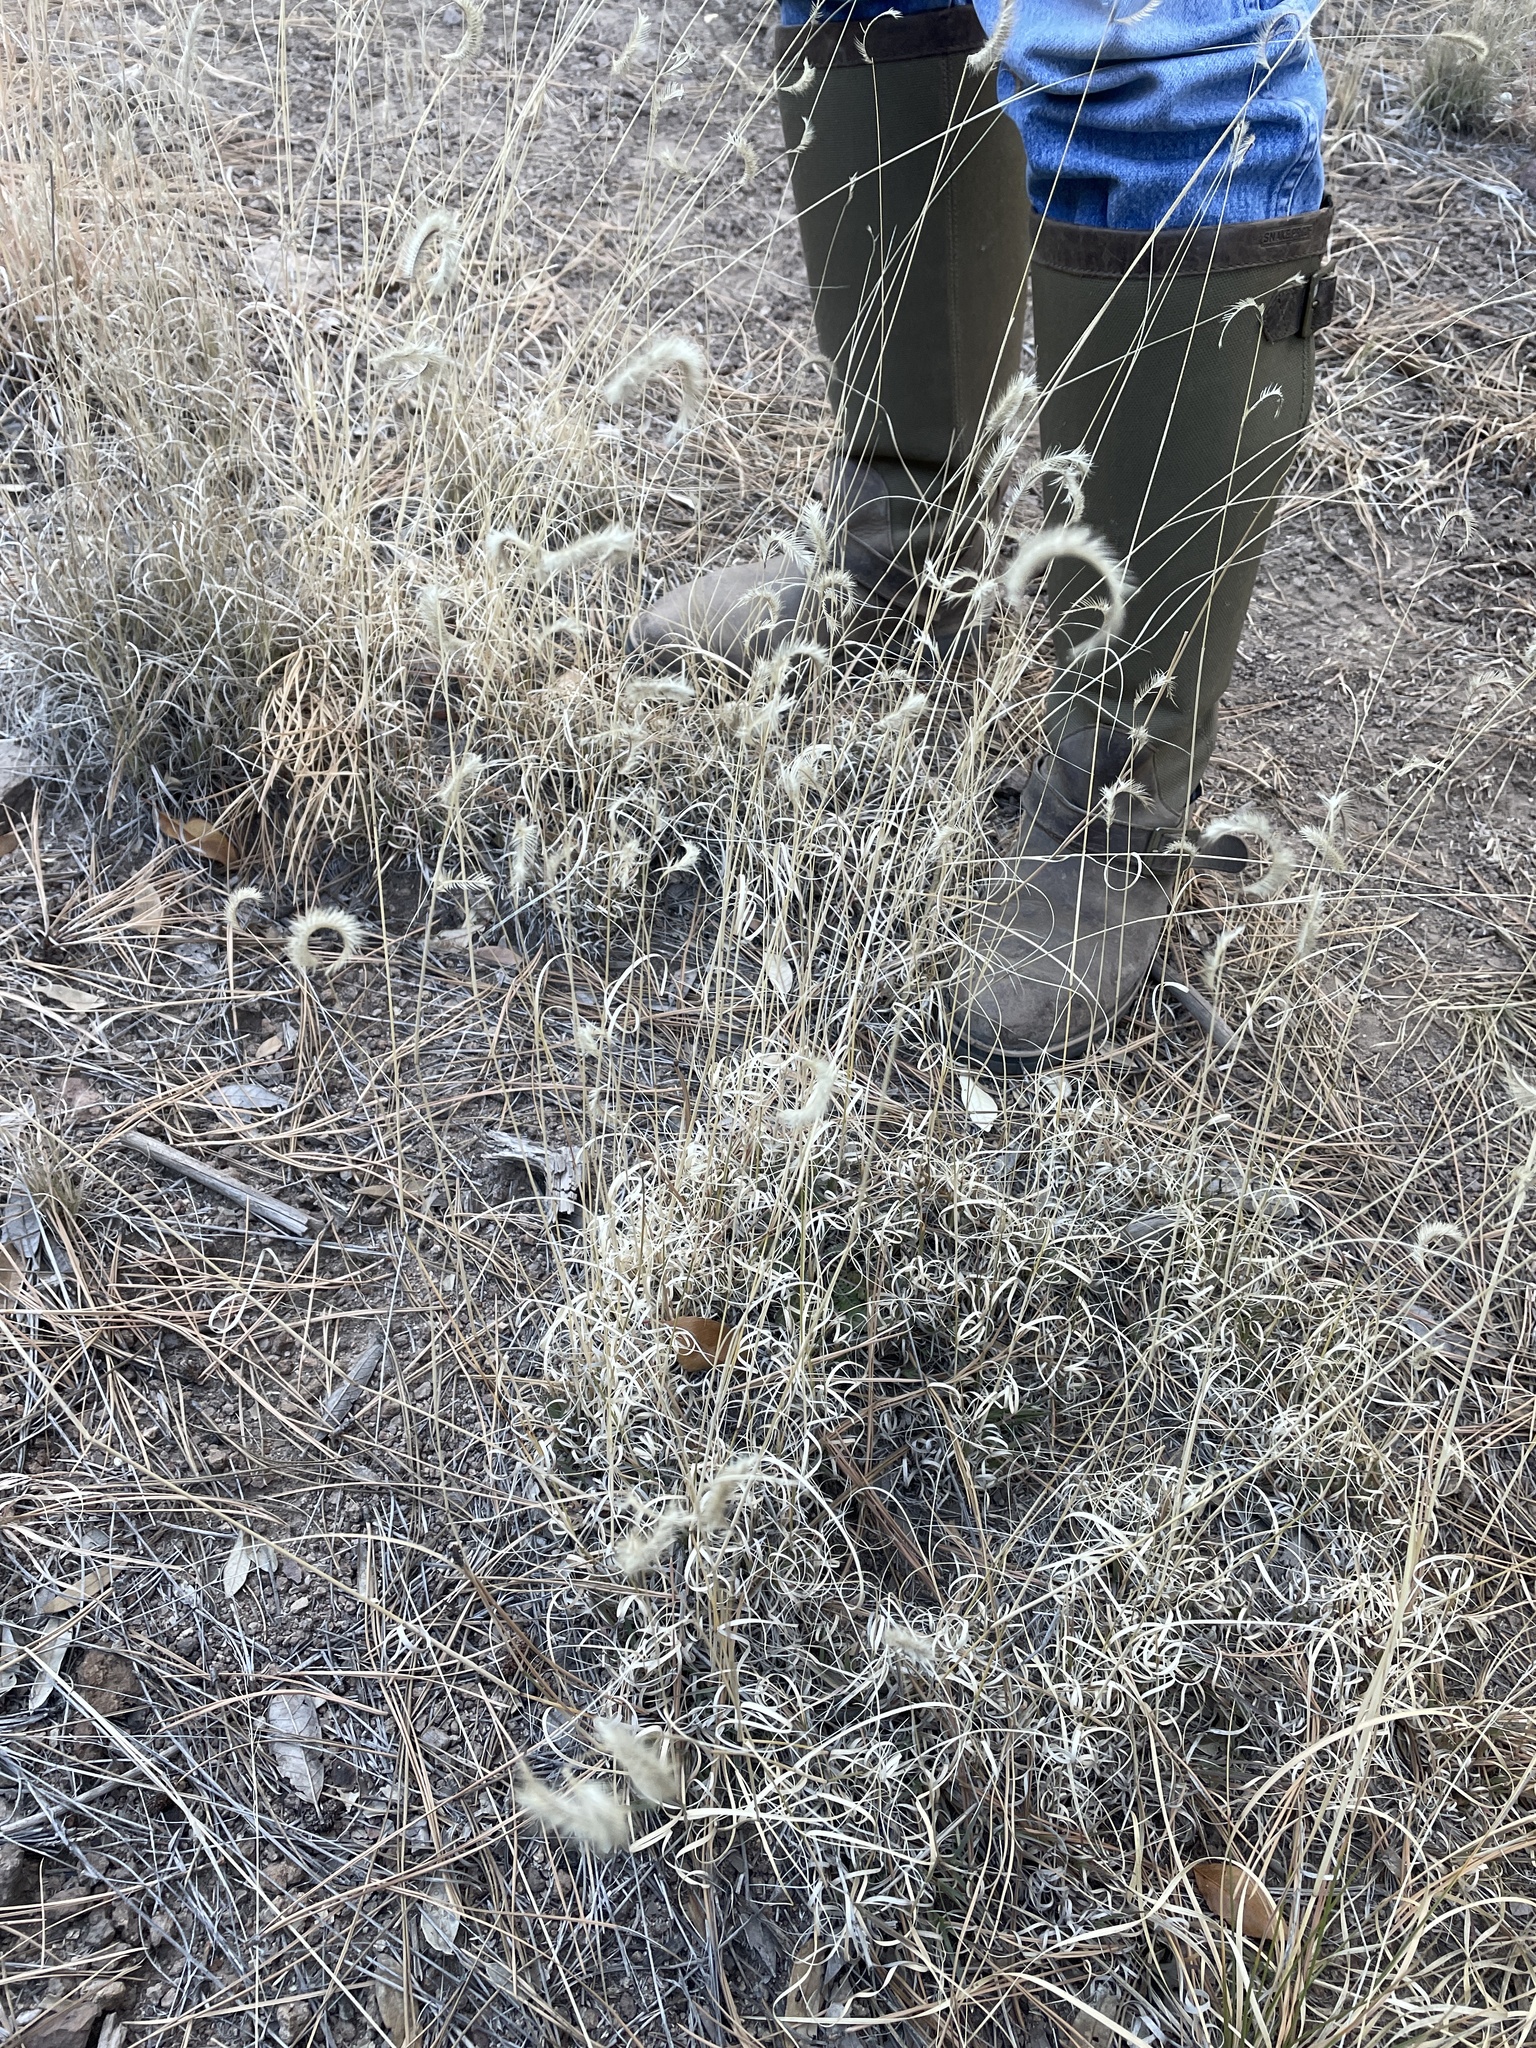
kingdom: Plantae
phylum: Tracheophyta
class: Liliopsida
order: Poales
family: Poaceae
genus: Bouteloua
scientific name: Bouteloua gracilis
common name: Blue grama
